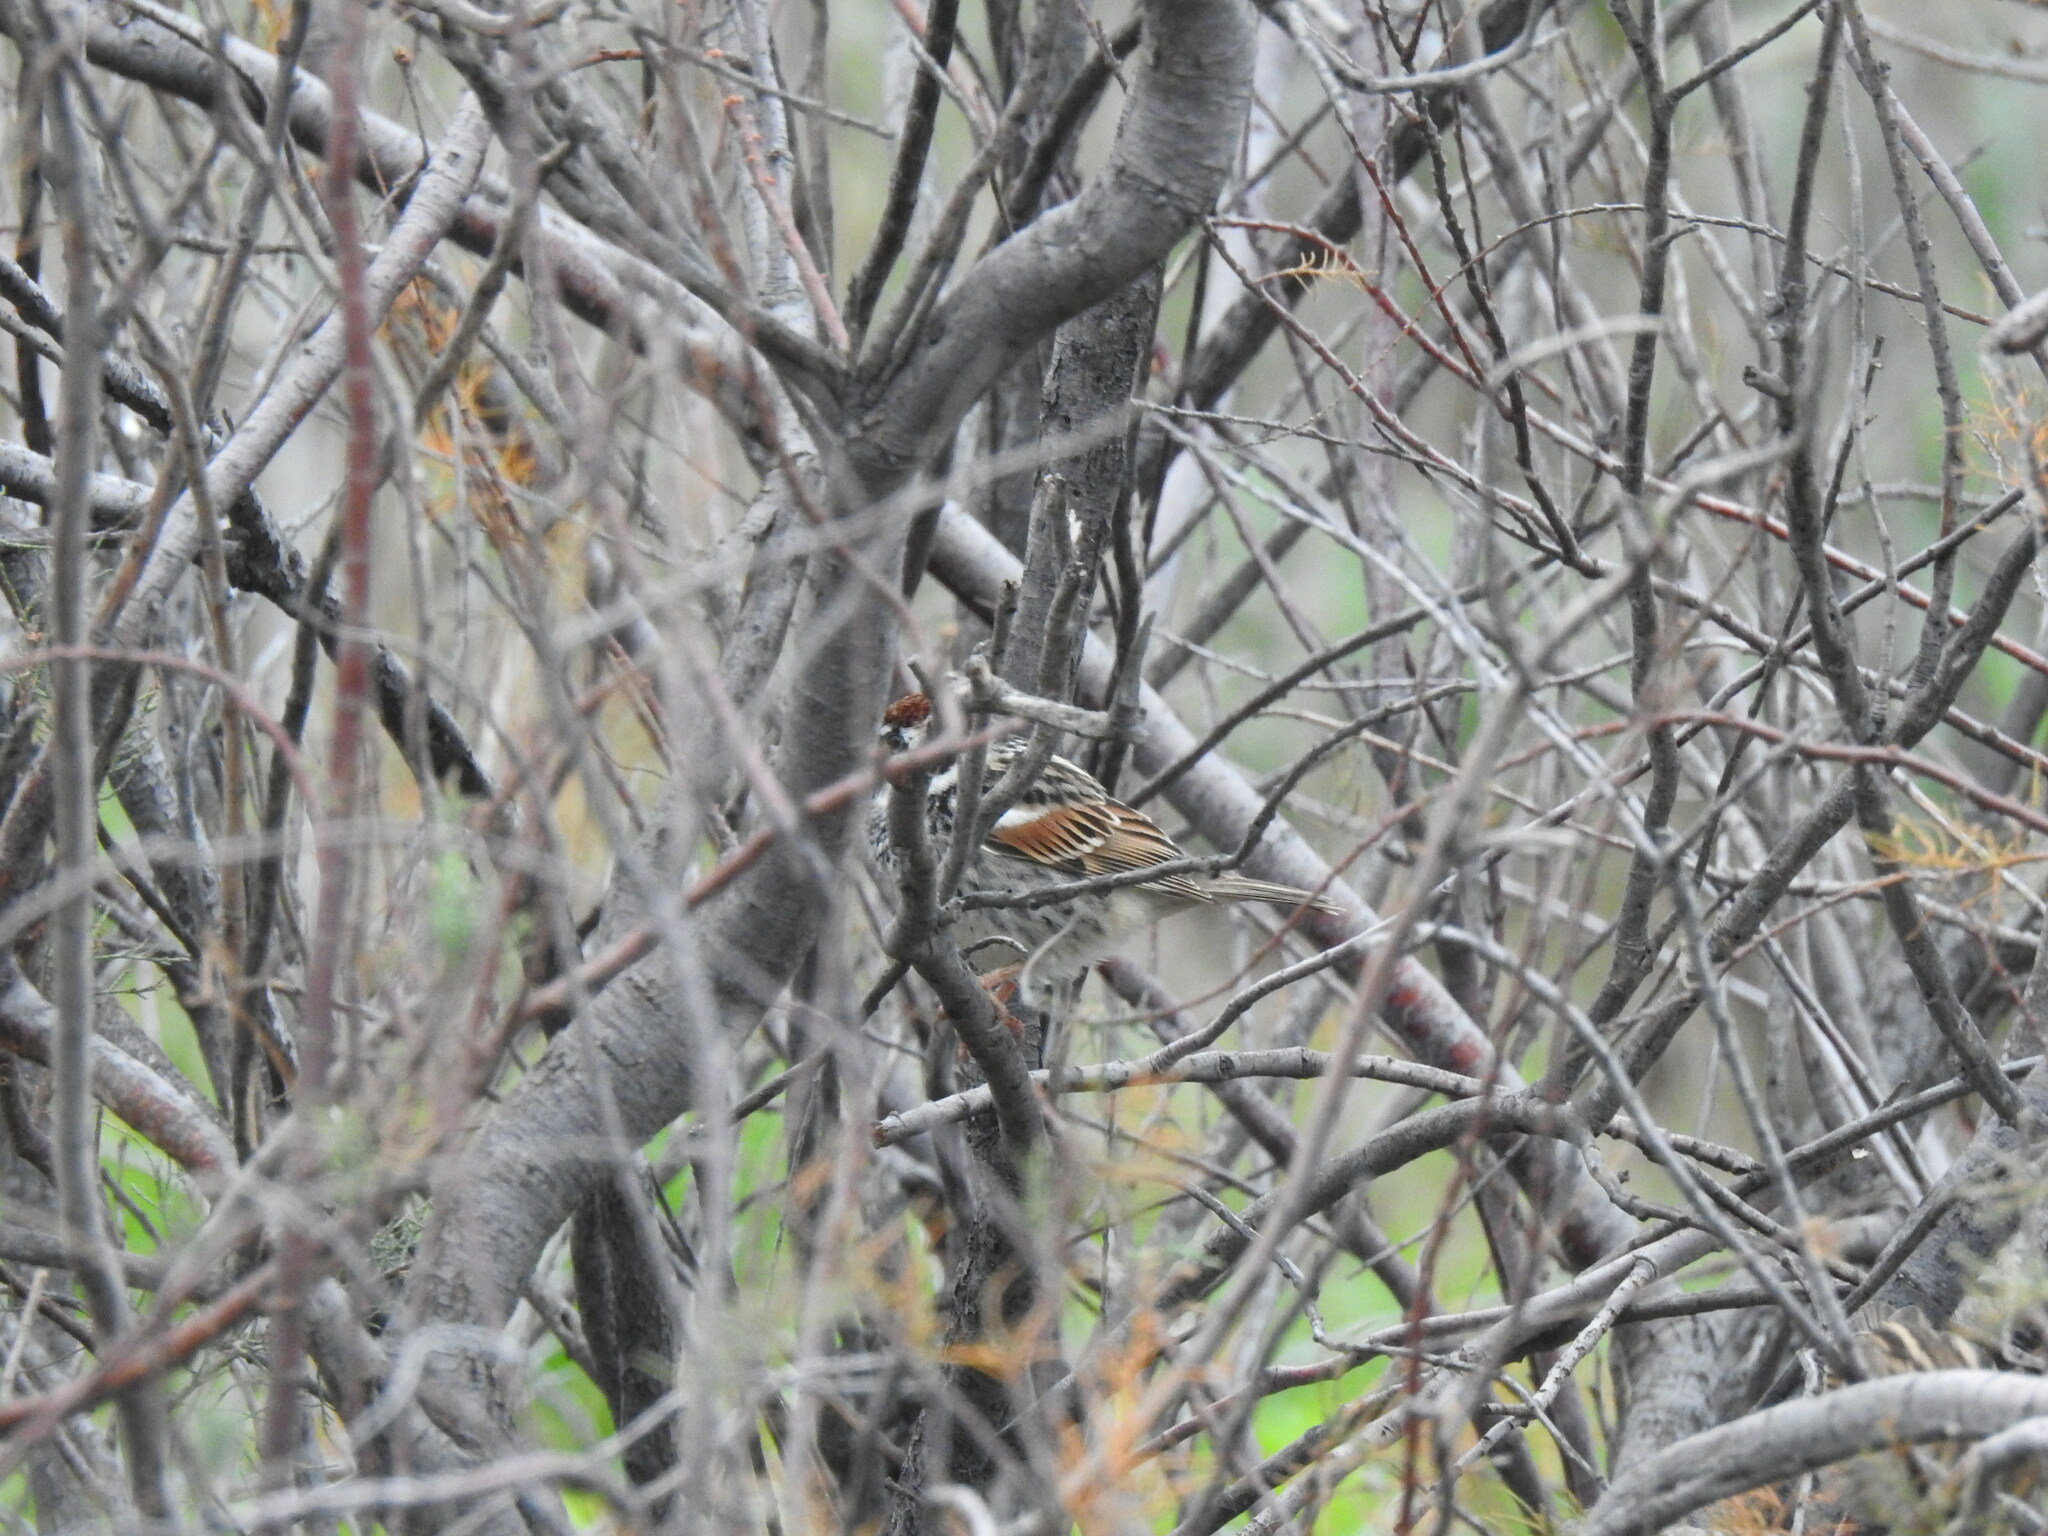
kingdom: Animalia
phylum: Chordata
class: Aves
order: Passeriformes
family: Passeridae
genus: Passer
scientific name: Passer hispaniolensis
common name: Spanish sparrow
